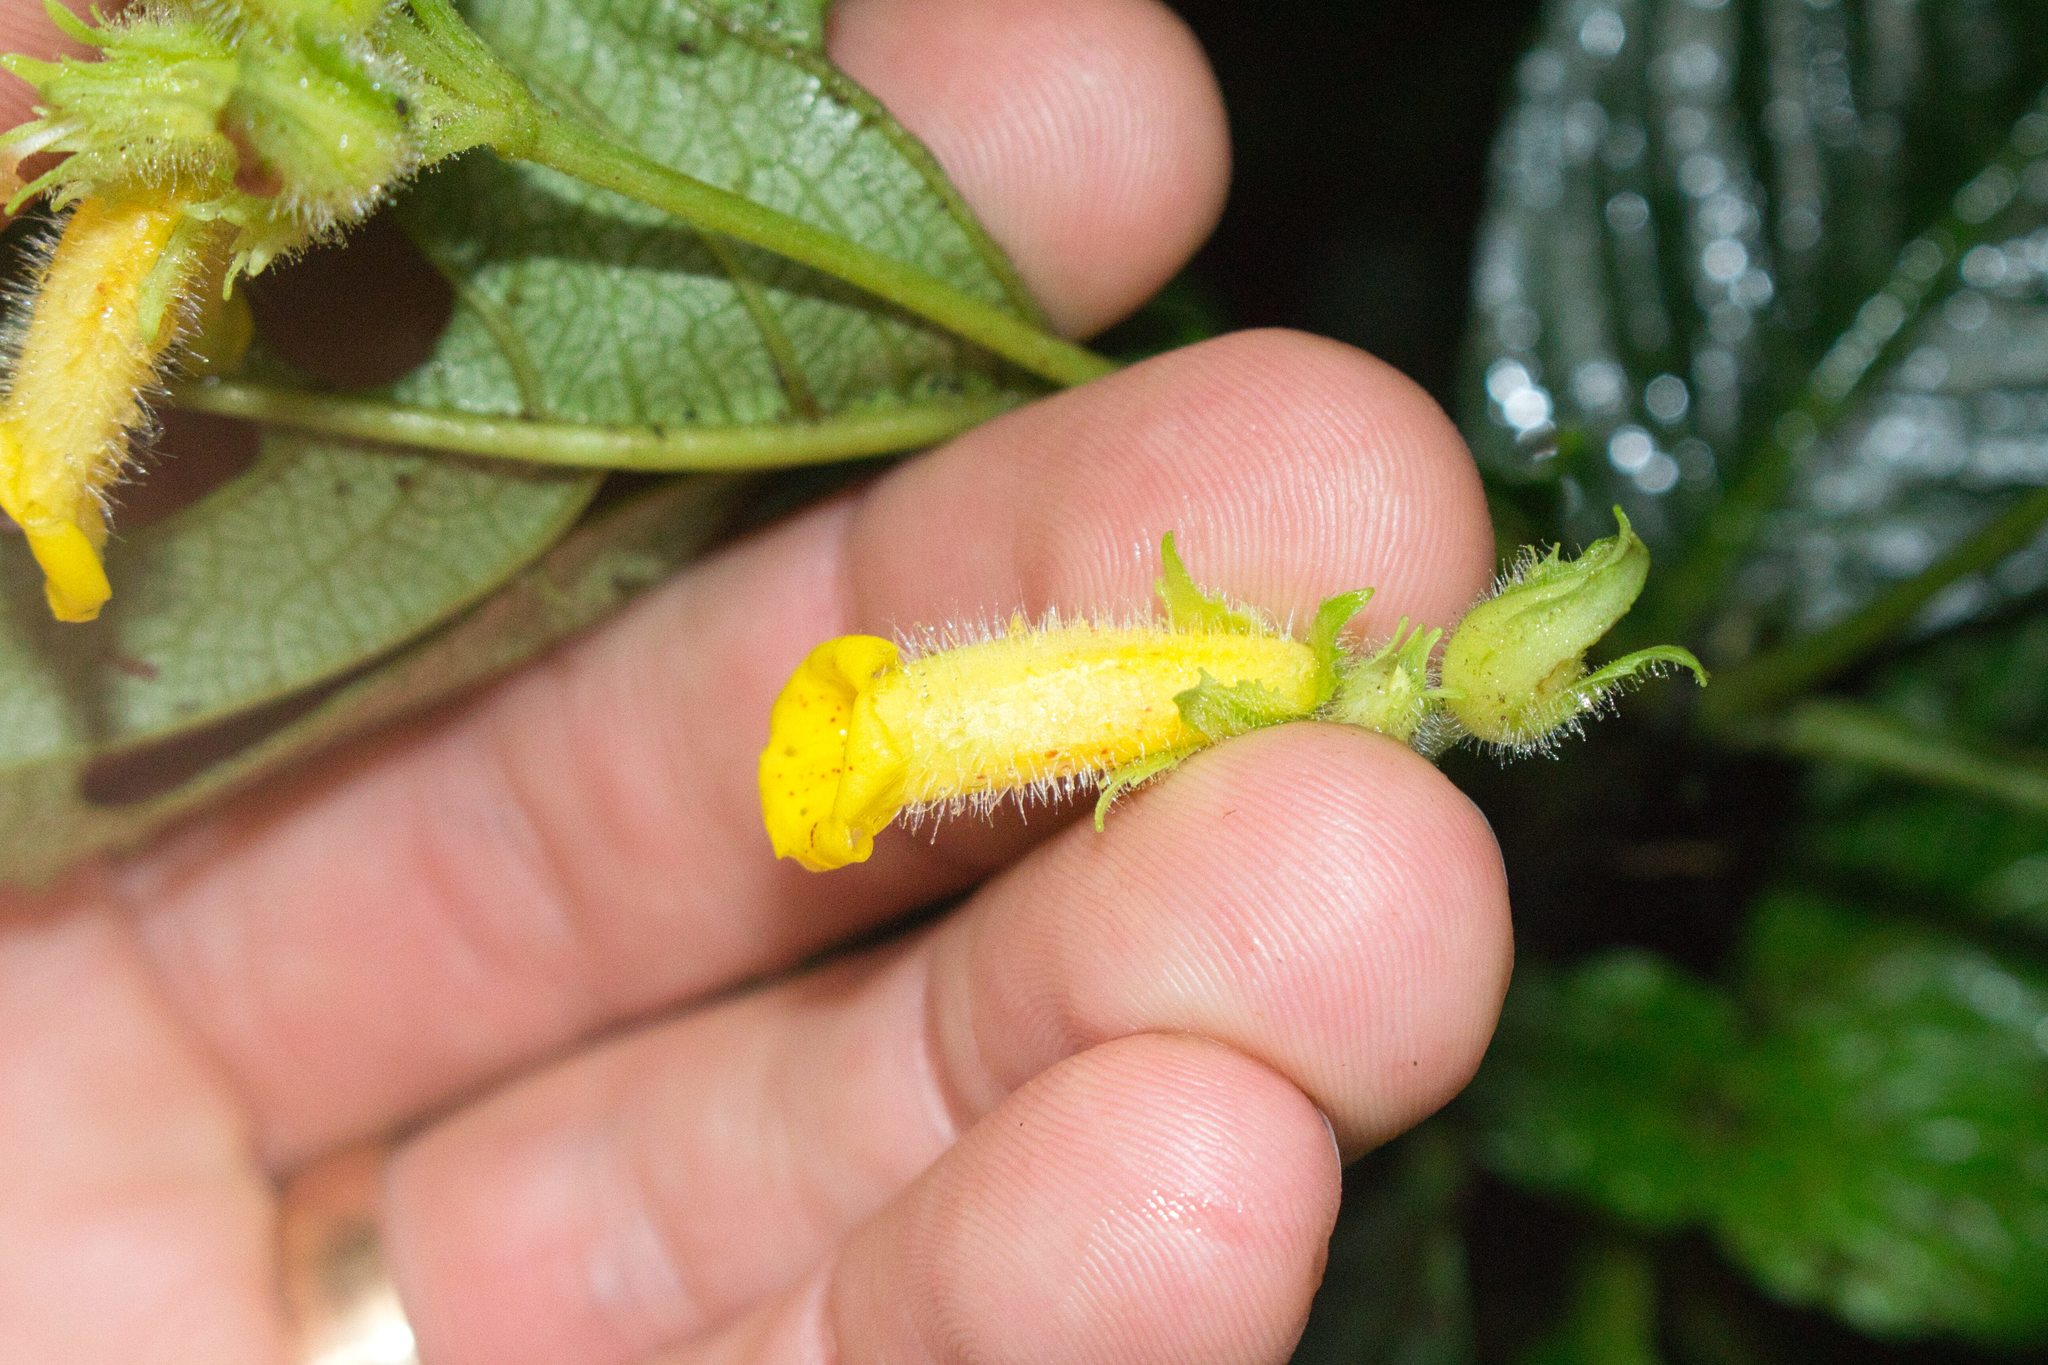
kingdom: Plantae
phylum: Tracheophyta
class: Magnoliopsida
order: Lamiales
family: Gesneriaceae
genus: Gasteranthus
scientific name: Gasteranthus wendlandianus
